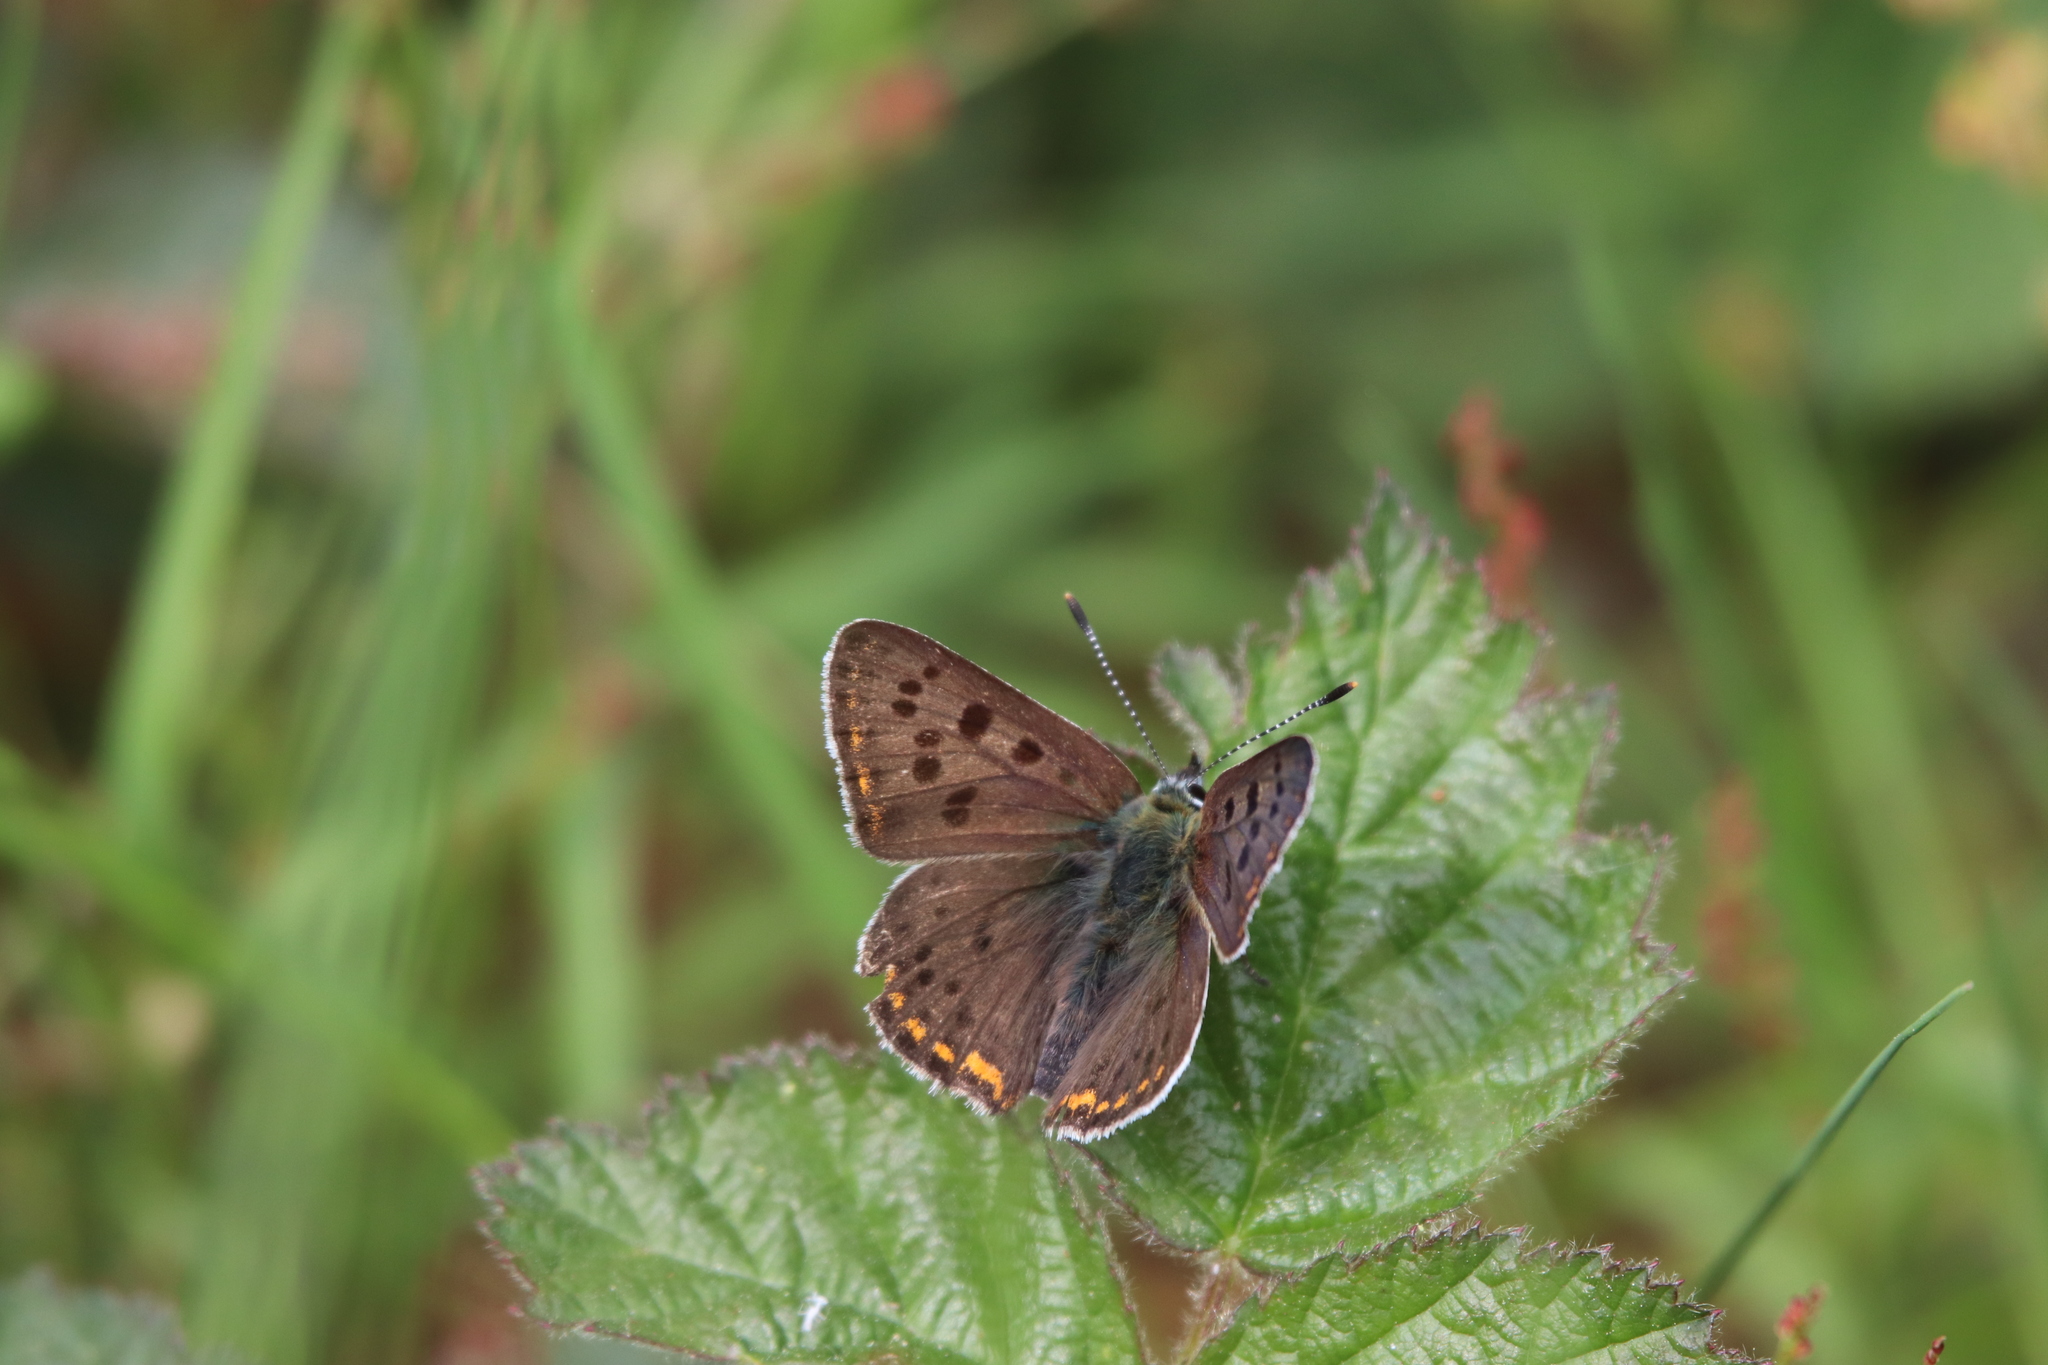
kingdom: Animalia
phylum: Arthropoda
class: Insecta
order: Lepidoptera
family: Lycaenidae
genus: Loweia
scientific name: Loweia tityrus
